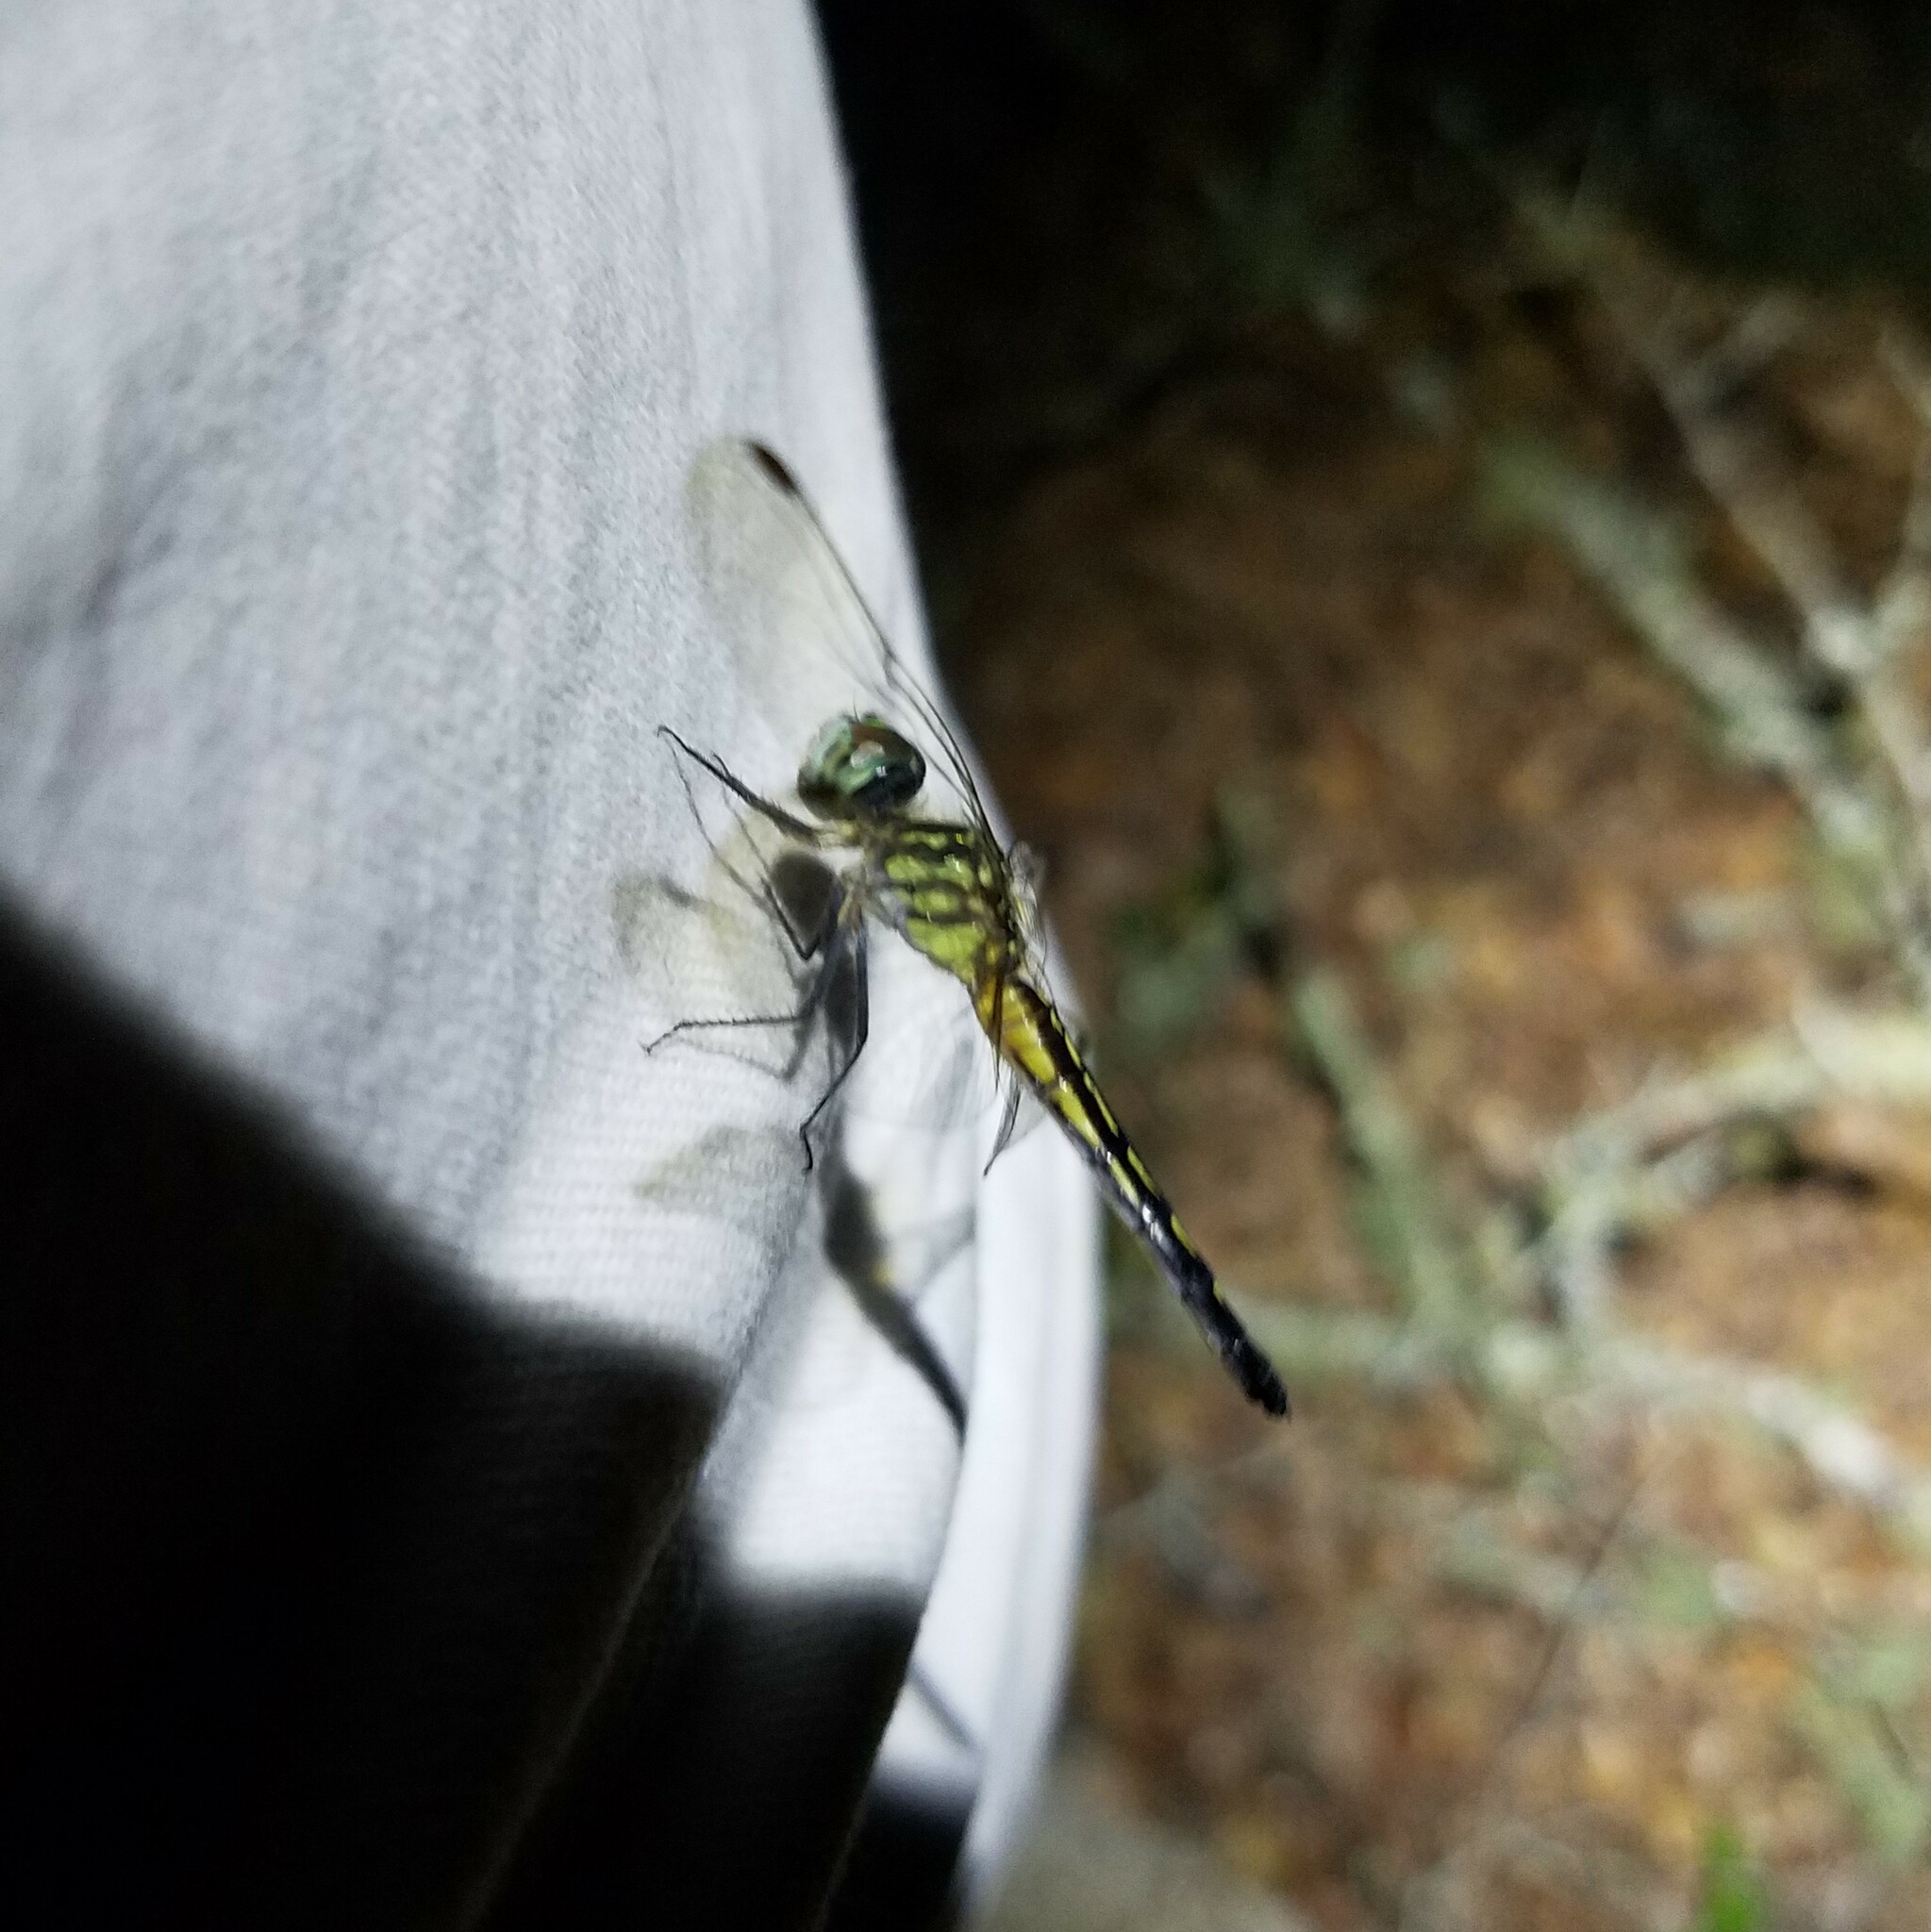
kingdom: Animalia
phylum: Arthropoda
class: Insecta
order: Odonata
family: Libellulidae
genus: Pachydiplax
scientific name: Pachydiplax longipennis
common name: Blue dasher
